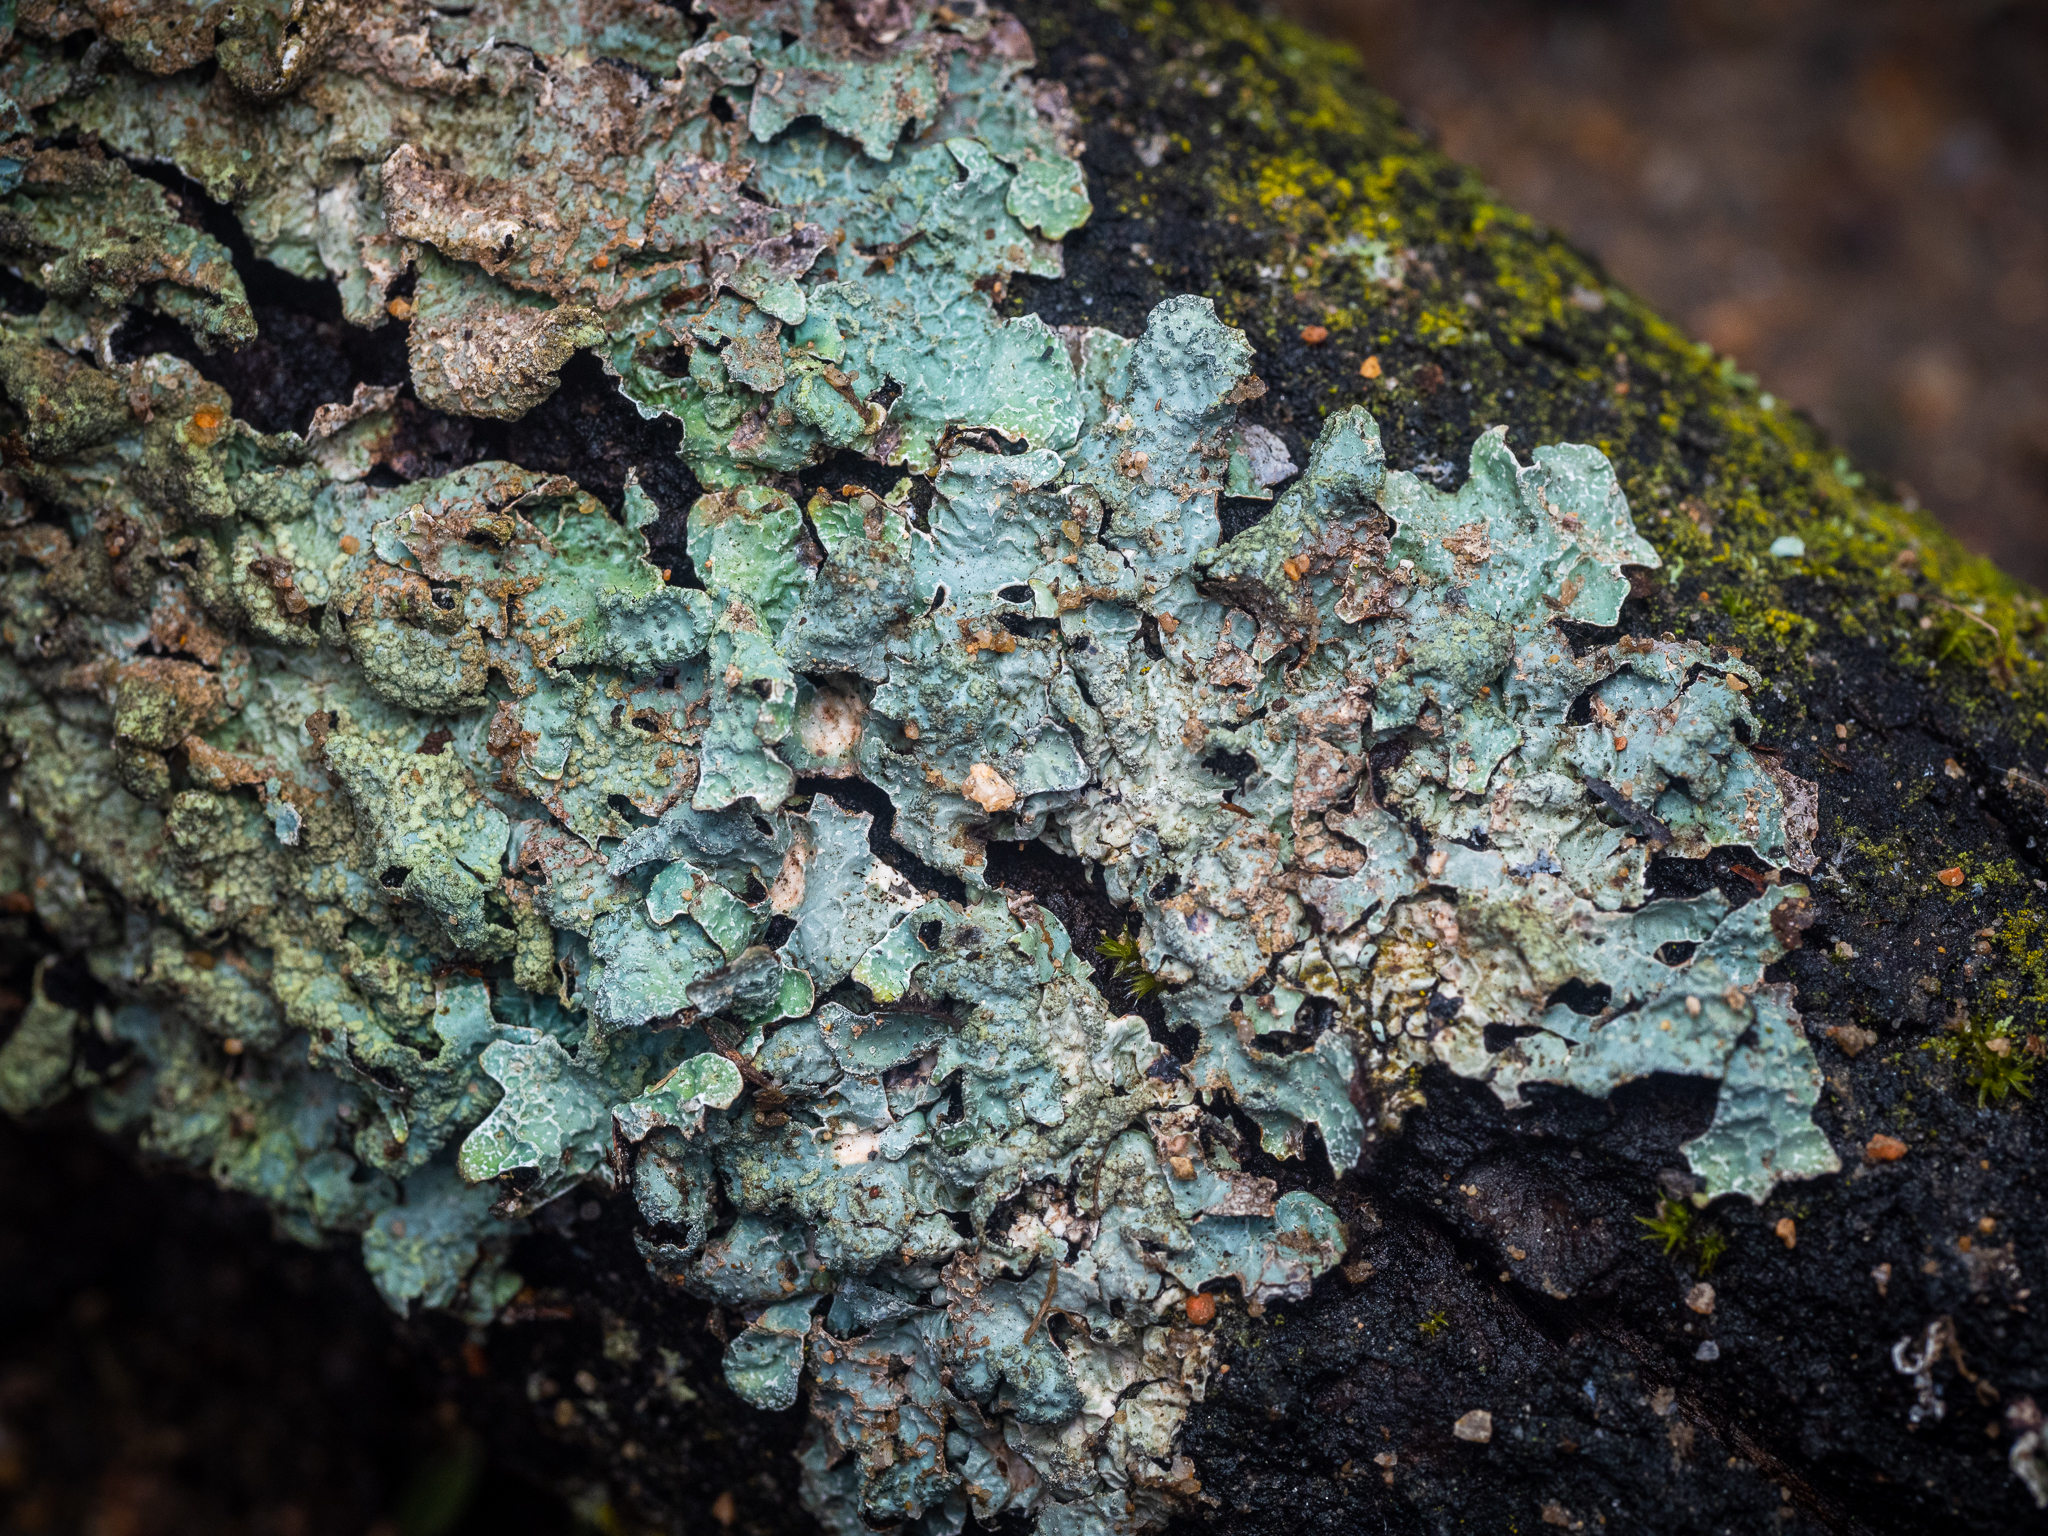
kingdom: Fungi
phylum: Ascomycota
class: Lecanoromycetes
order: Lecanorales
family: Parmeliaceae
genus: Parmelia
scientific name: Parmelia sulcata
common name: Netted shield lichen
